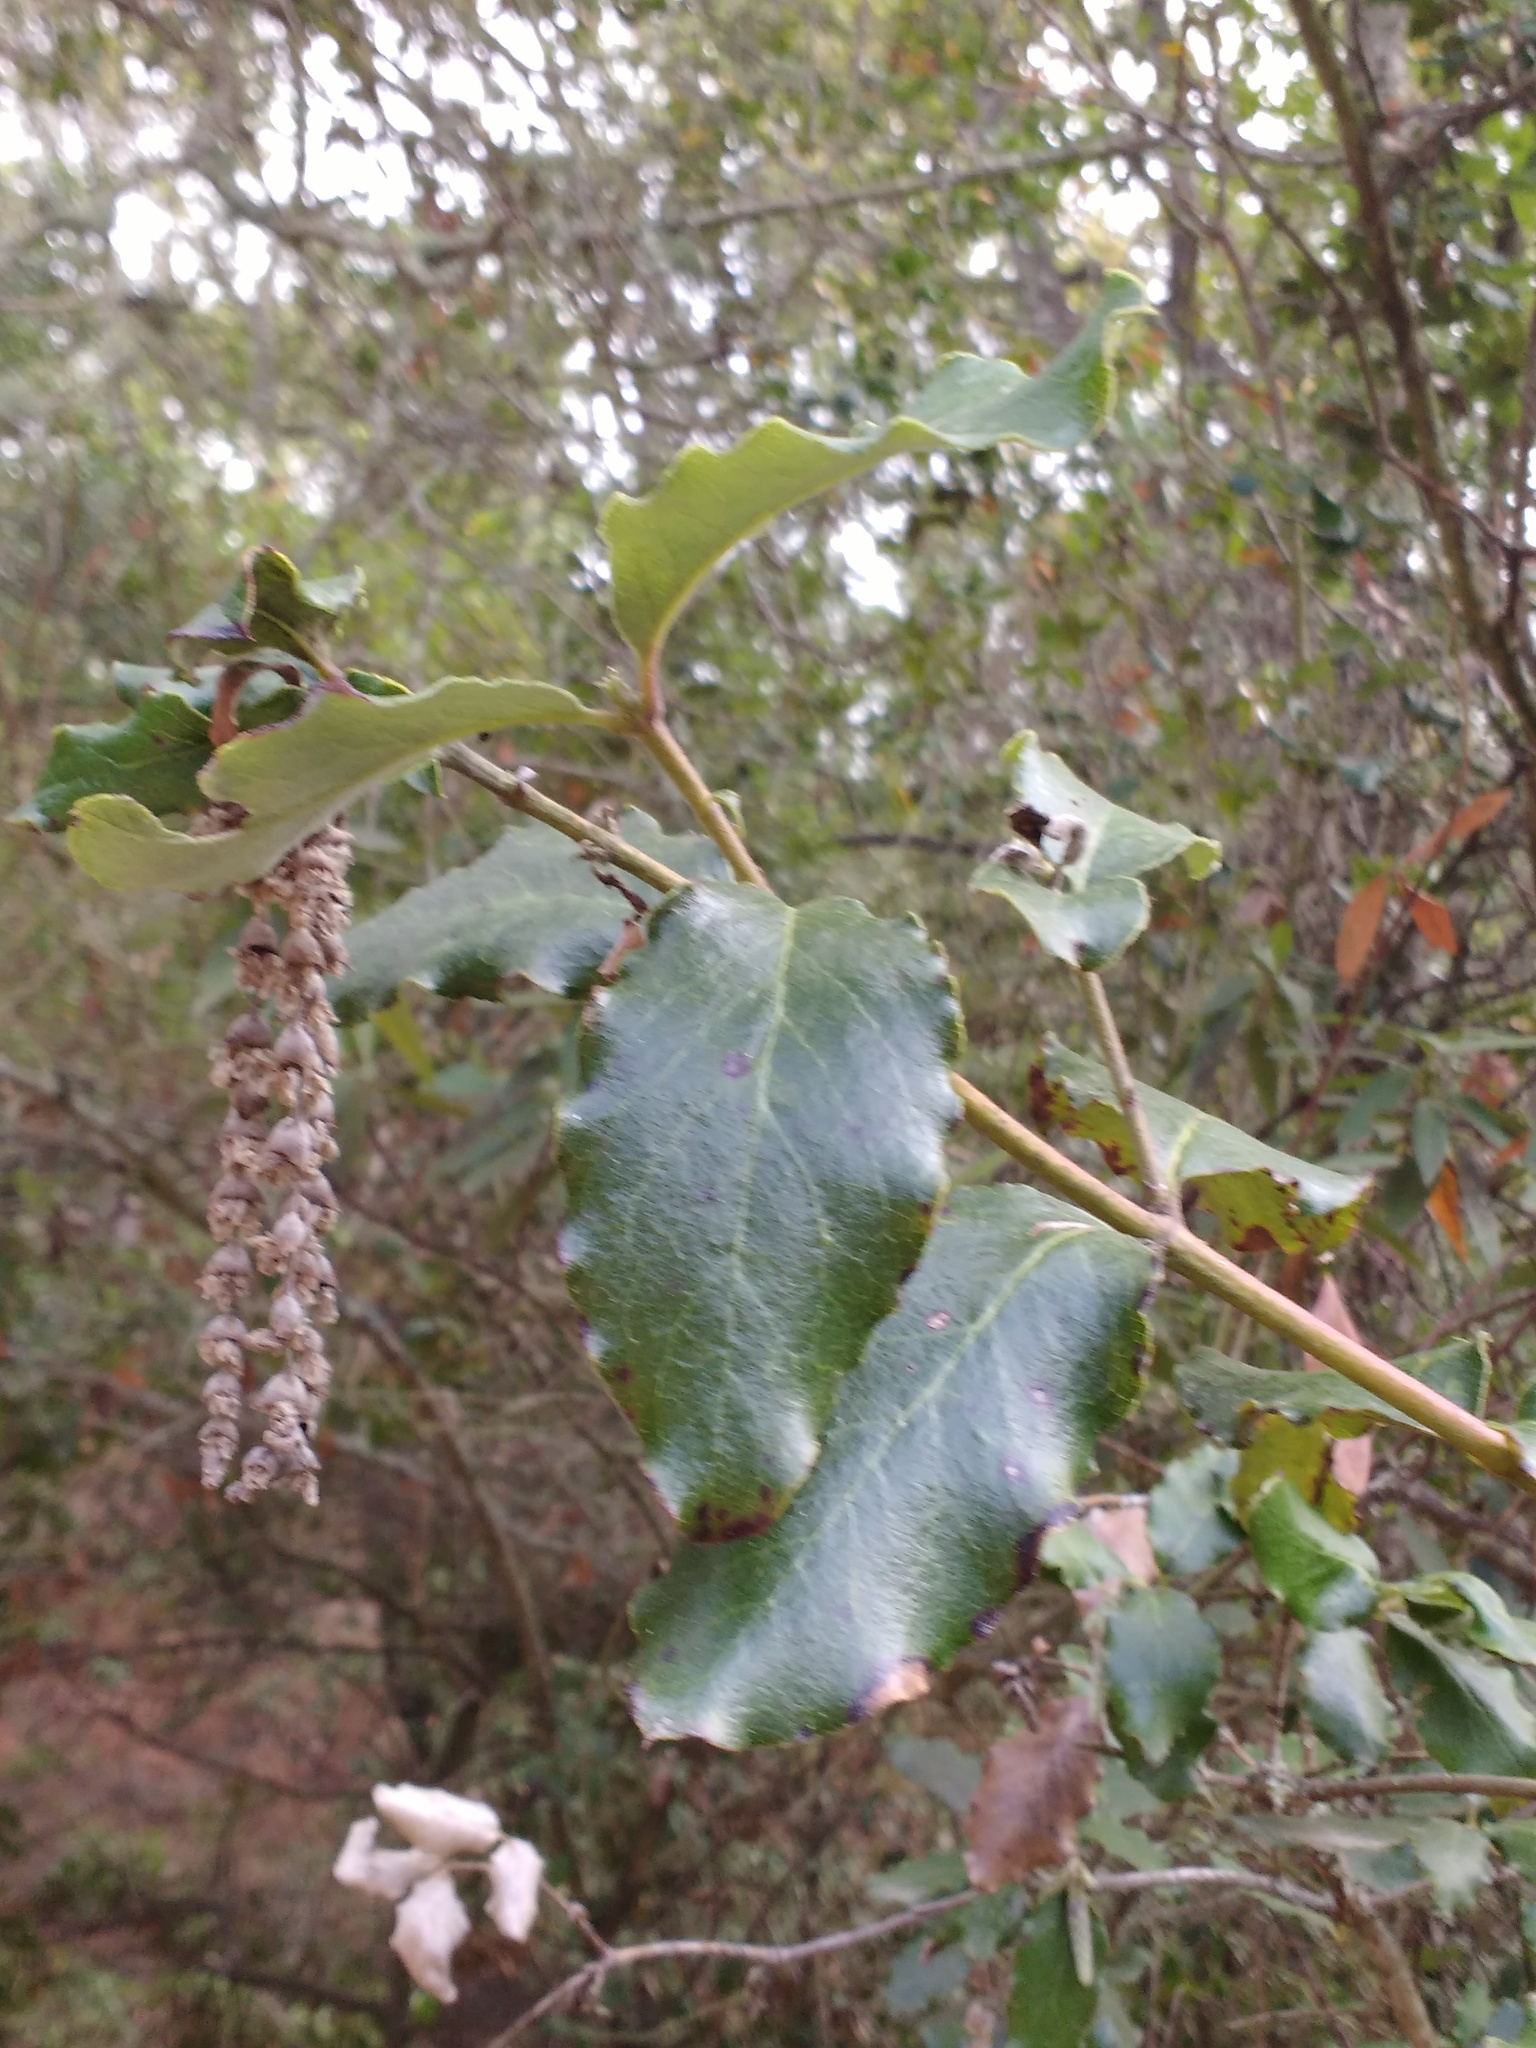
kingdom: Plantae
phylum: Tracheophyta
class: Magnoliopsida
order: Garryales
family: Garryaceae
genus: Garrya
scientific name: Garrya elliptica
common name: Silk-tassel
